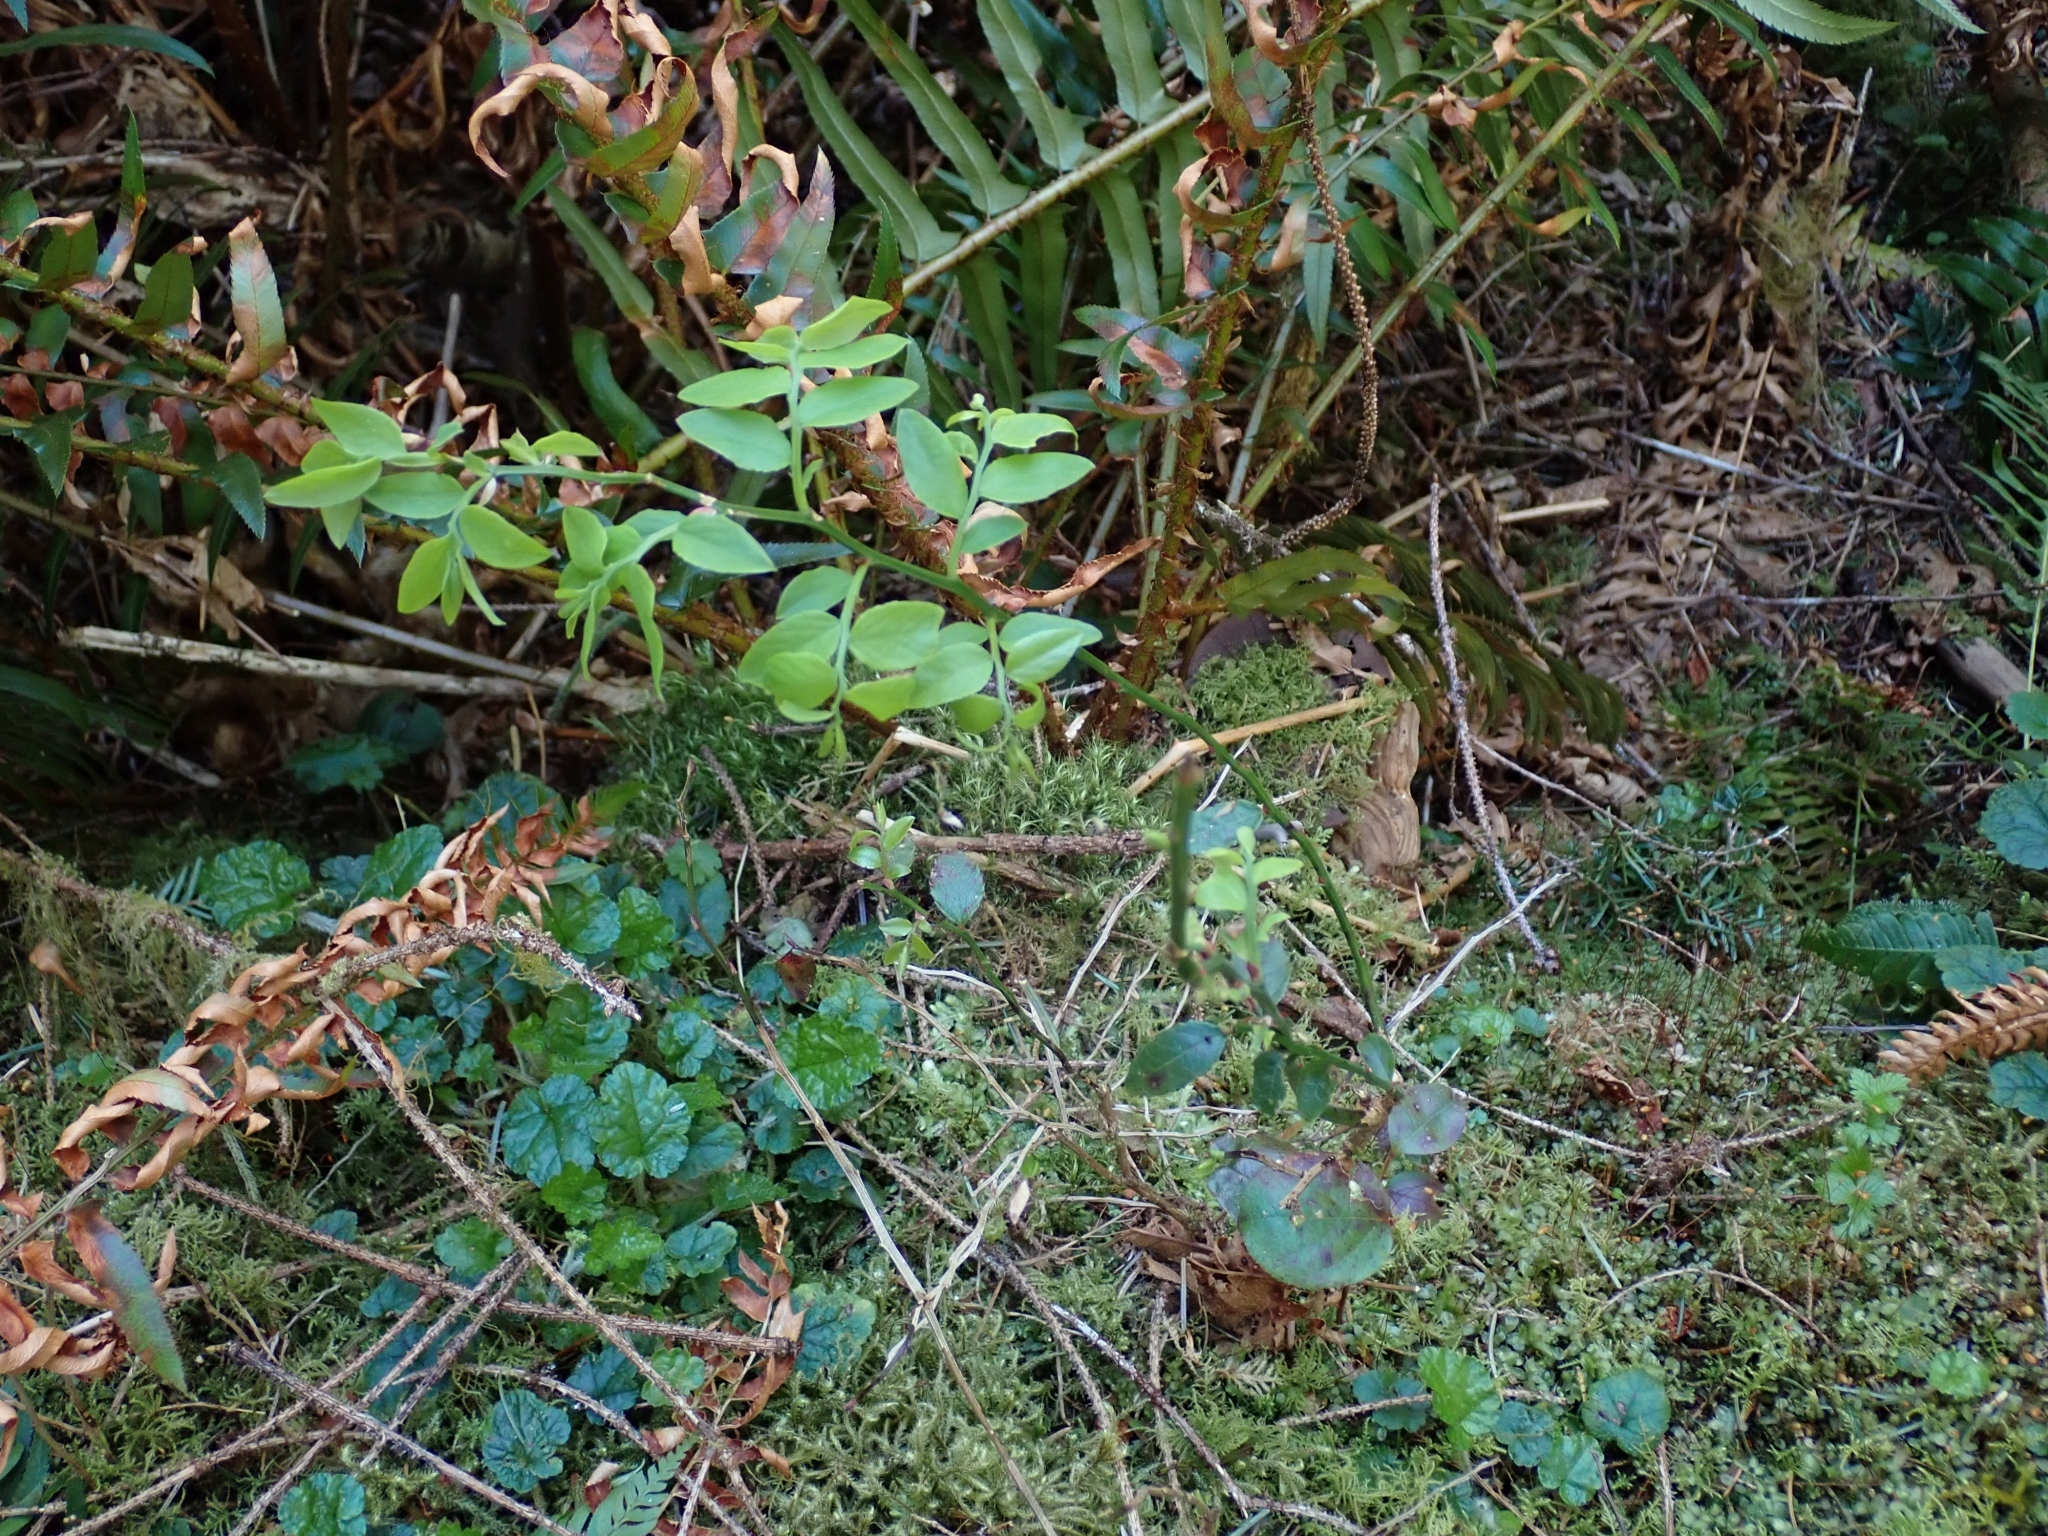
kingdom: Plantae
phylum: Tracheophyta
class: Magnoliopsida
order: Ericales
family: Ericaceae
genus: Vaccinium
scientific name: Vaccinium parvifolium
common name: Red-huckleberry
